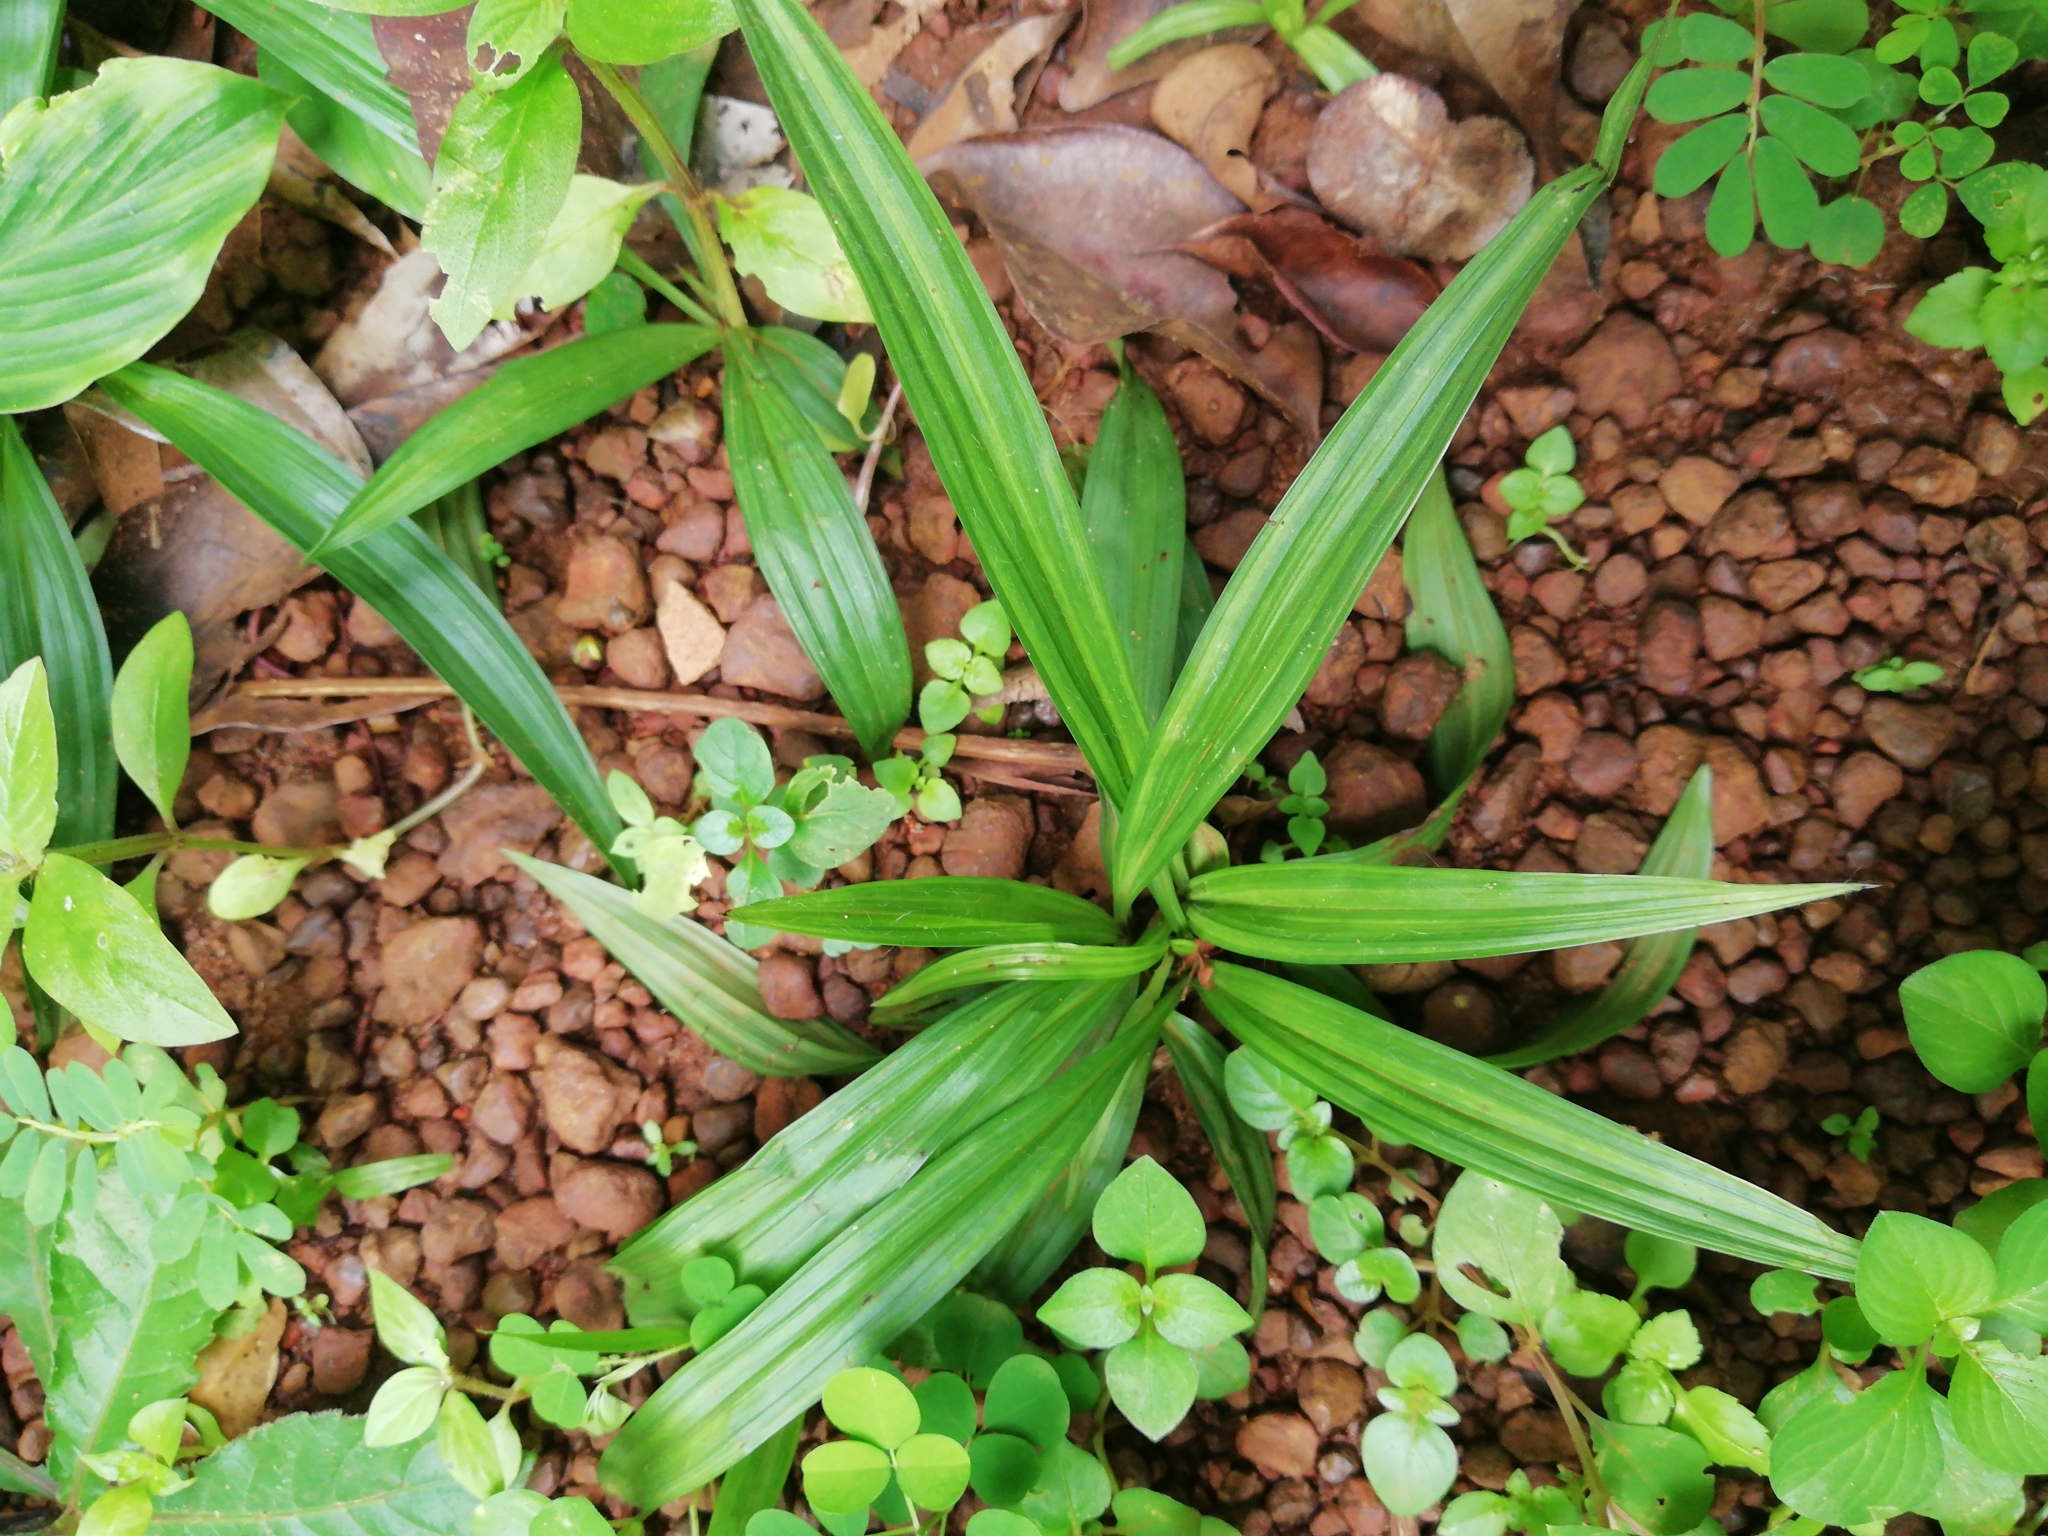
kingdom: Plantae
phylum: Tracheophyta
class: Liliopsida
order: Asparagales
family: Hypoxidaceae
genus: Curculigo
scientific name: Curculigo orchioides
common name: Golden eye-grass
